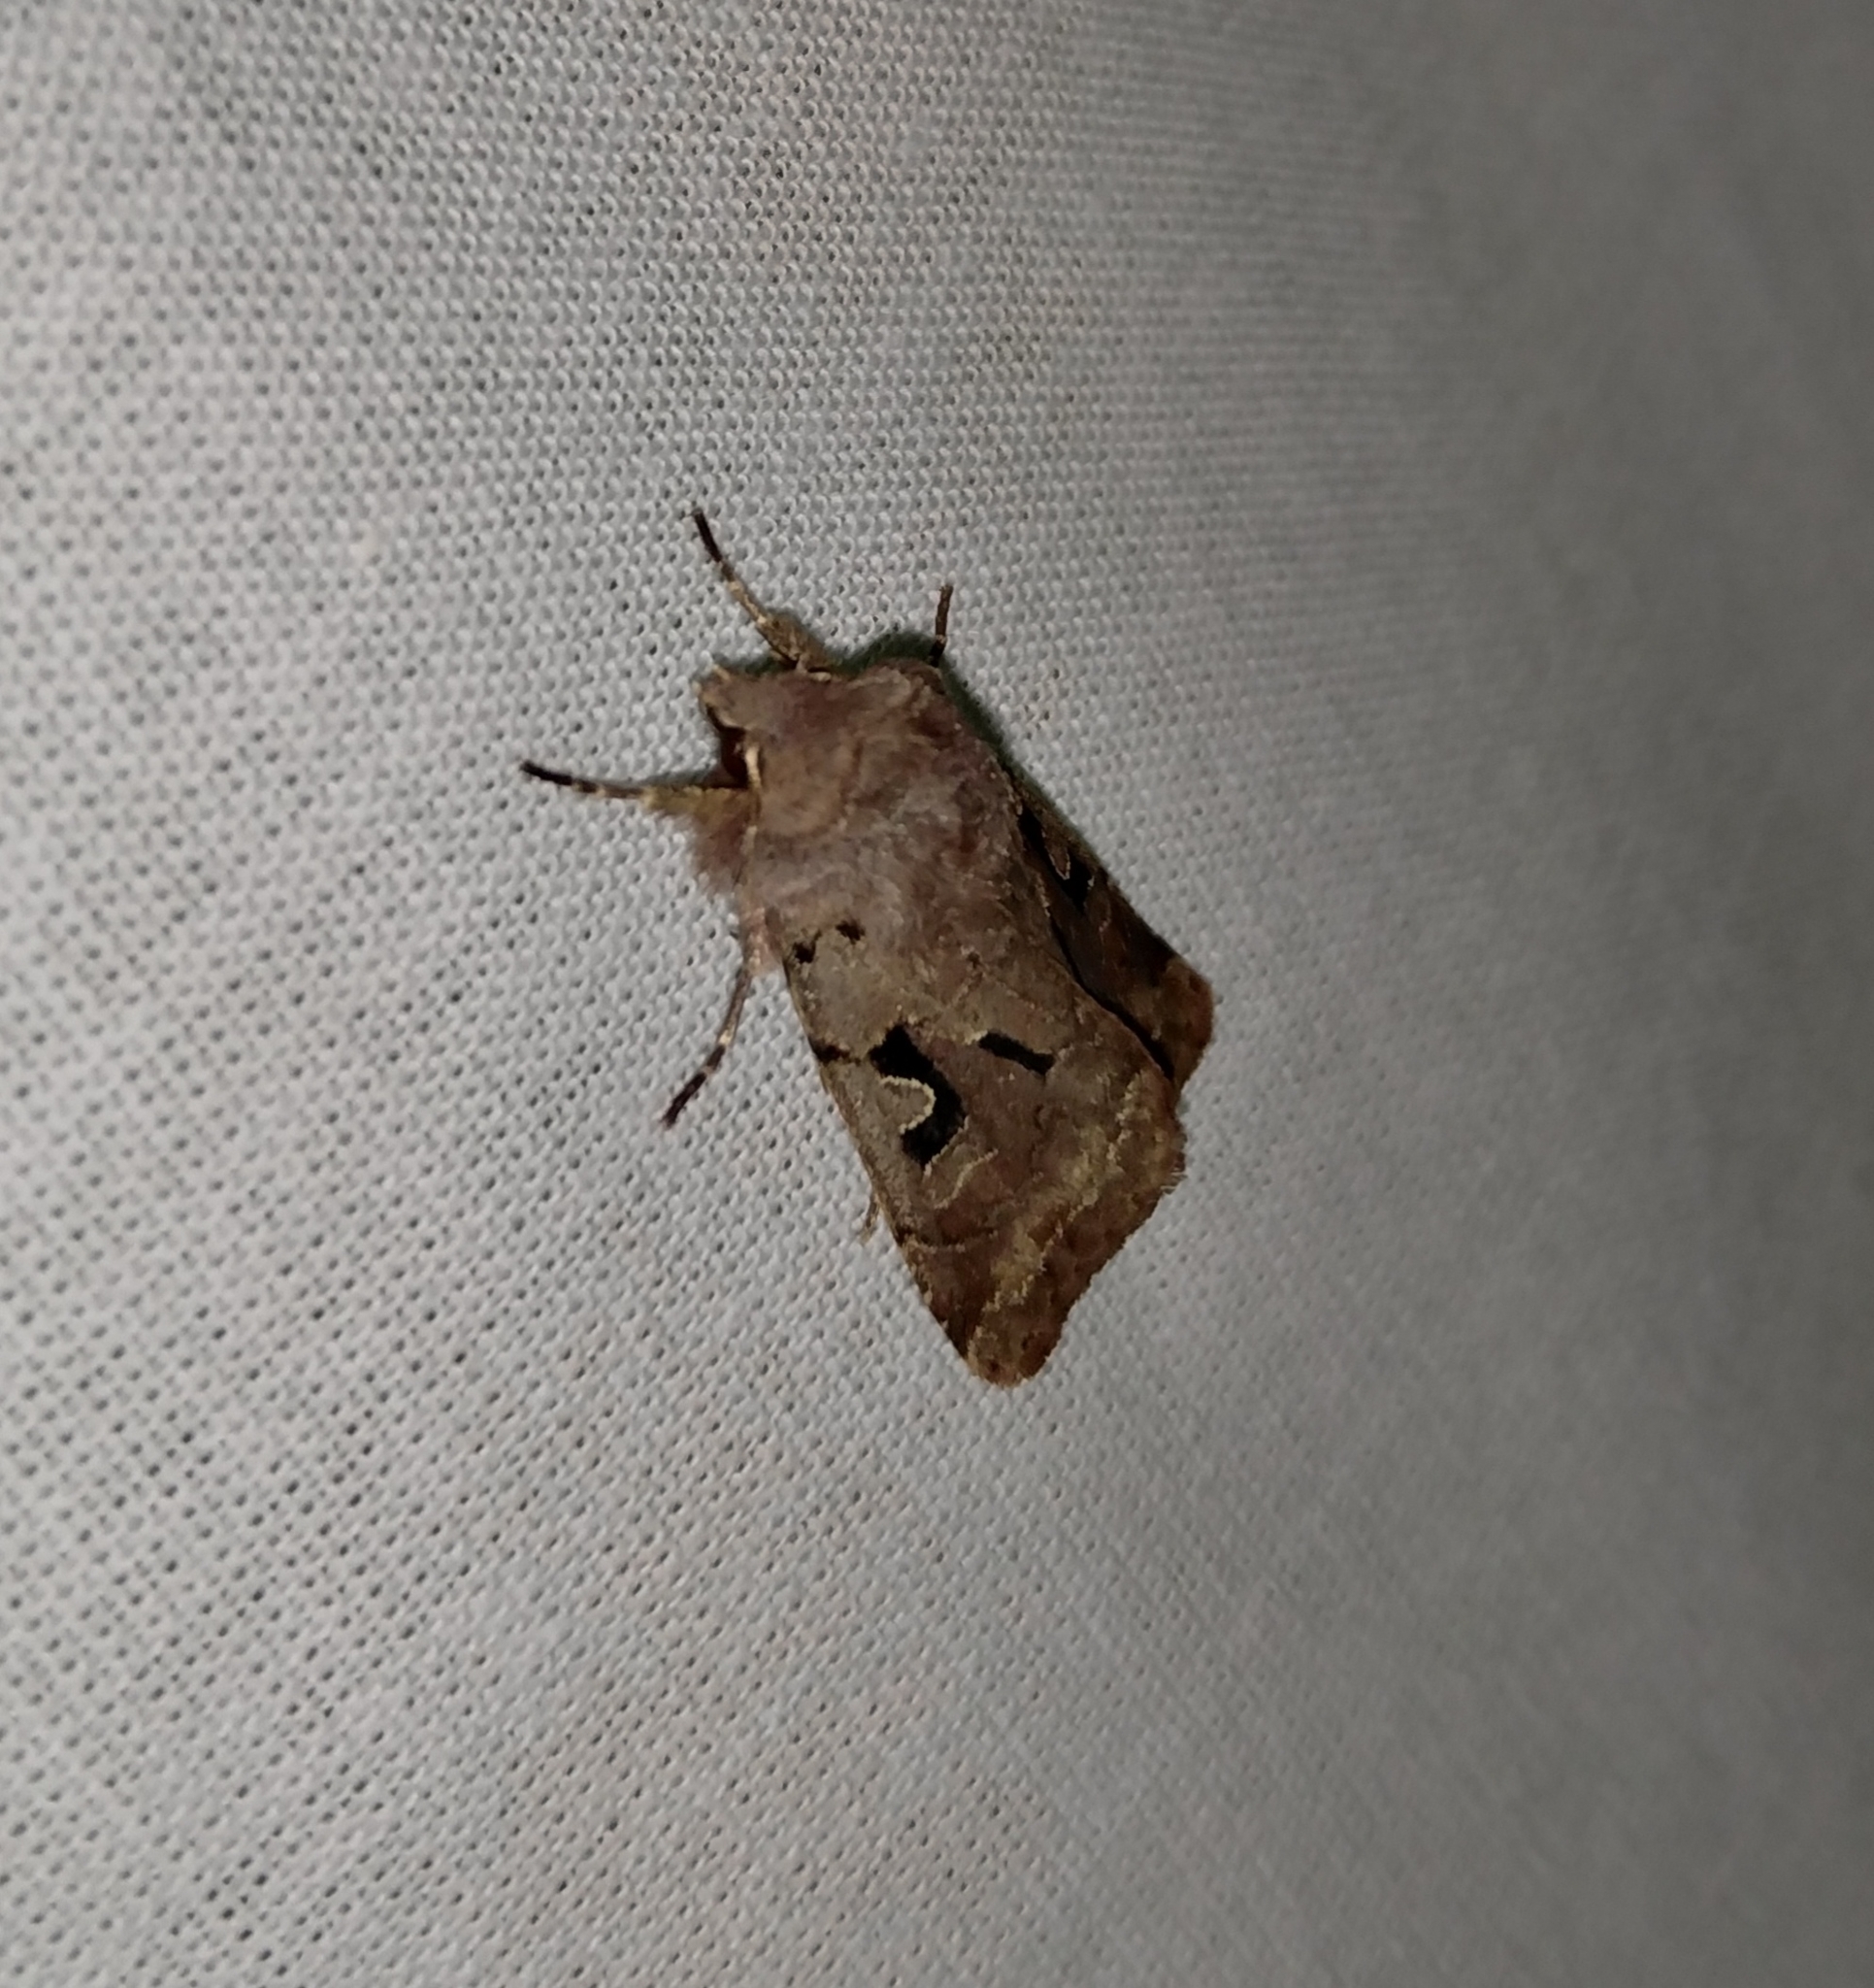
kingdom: Animalia
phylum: Arthropoda
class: Insecta
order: Lepidoptera
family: Noctuidae
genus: Orthosia
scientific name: Orthosia gothica
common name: Hebrew character
